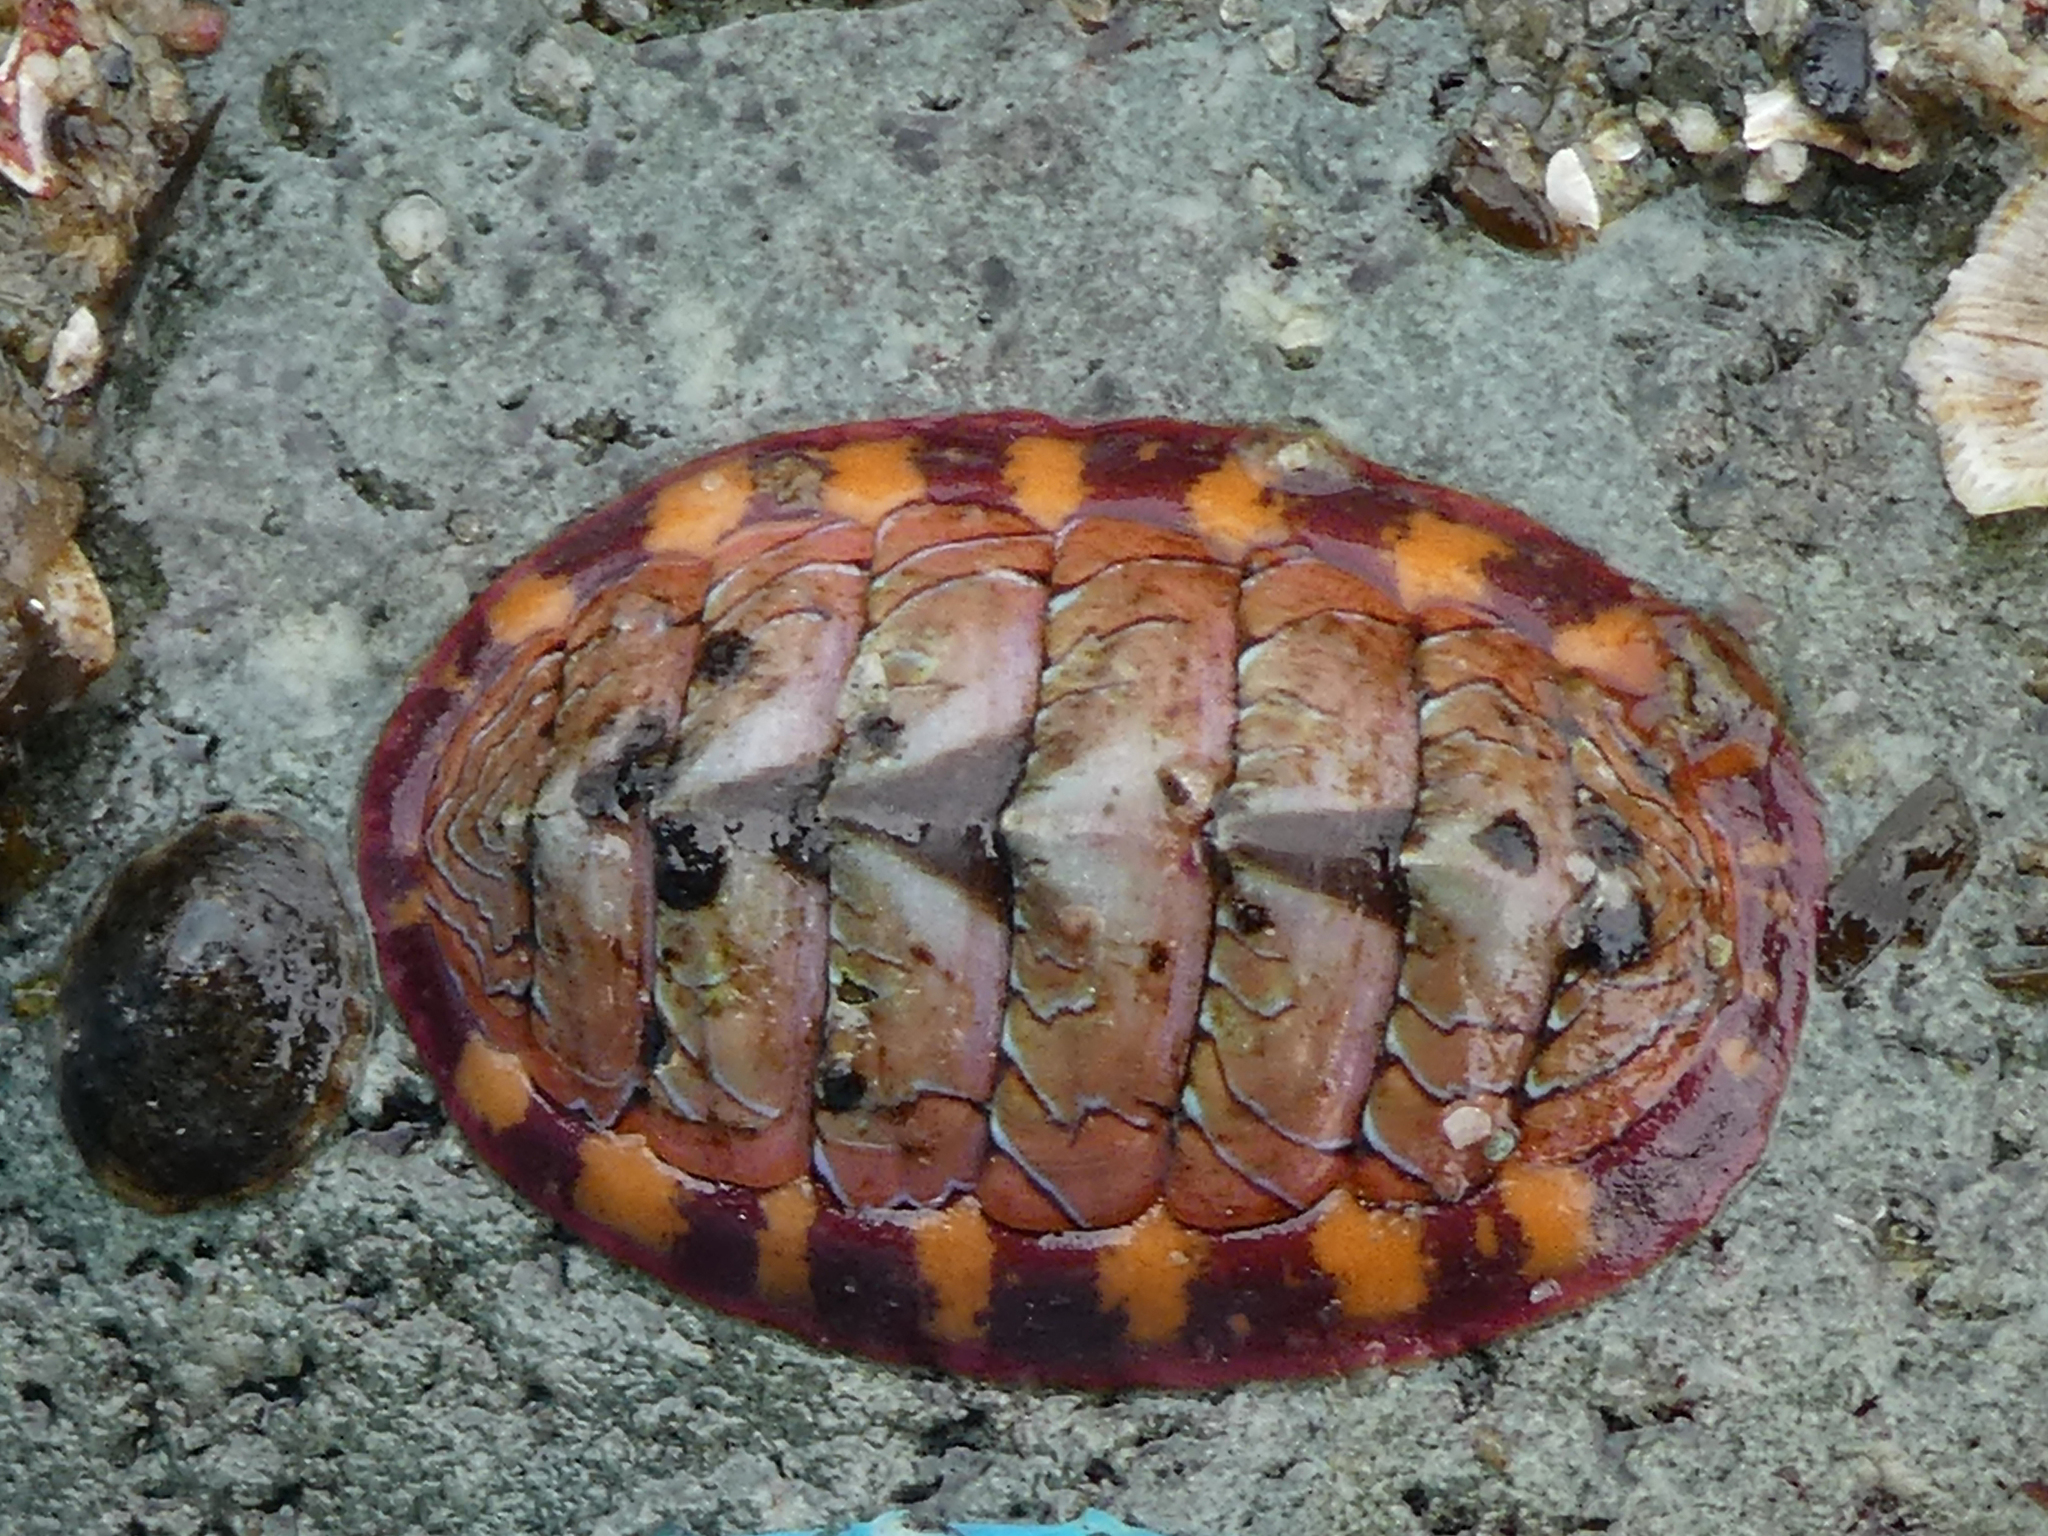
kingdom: Animalia
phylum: Mollusca
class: Polyplacophora
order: Chitonida
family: Tonicellidae
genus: Tonicella
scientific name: Tonicella lineata
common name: Lined chiton
